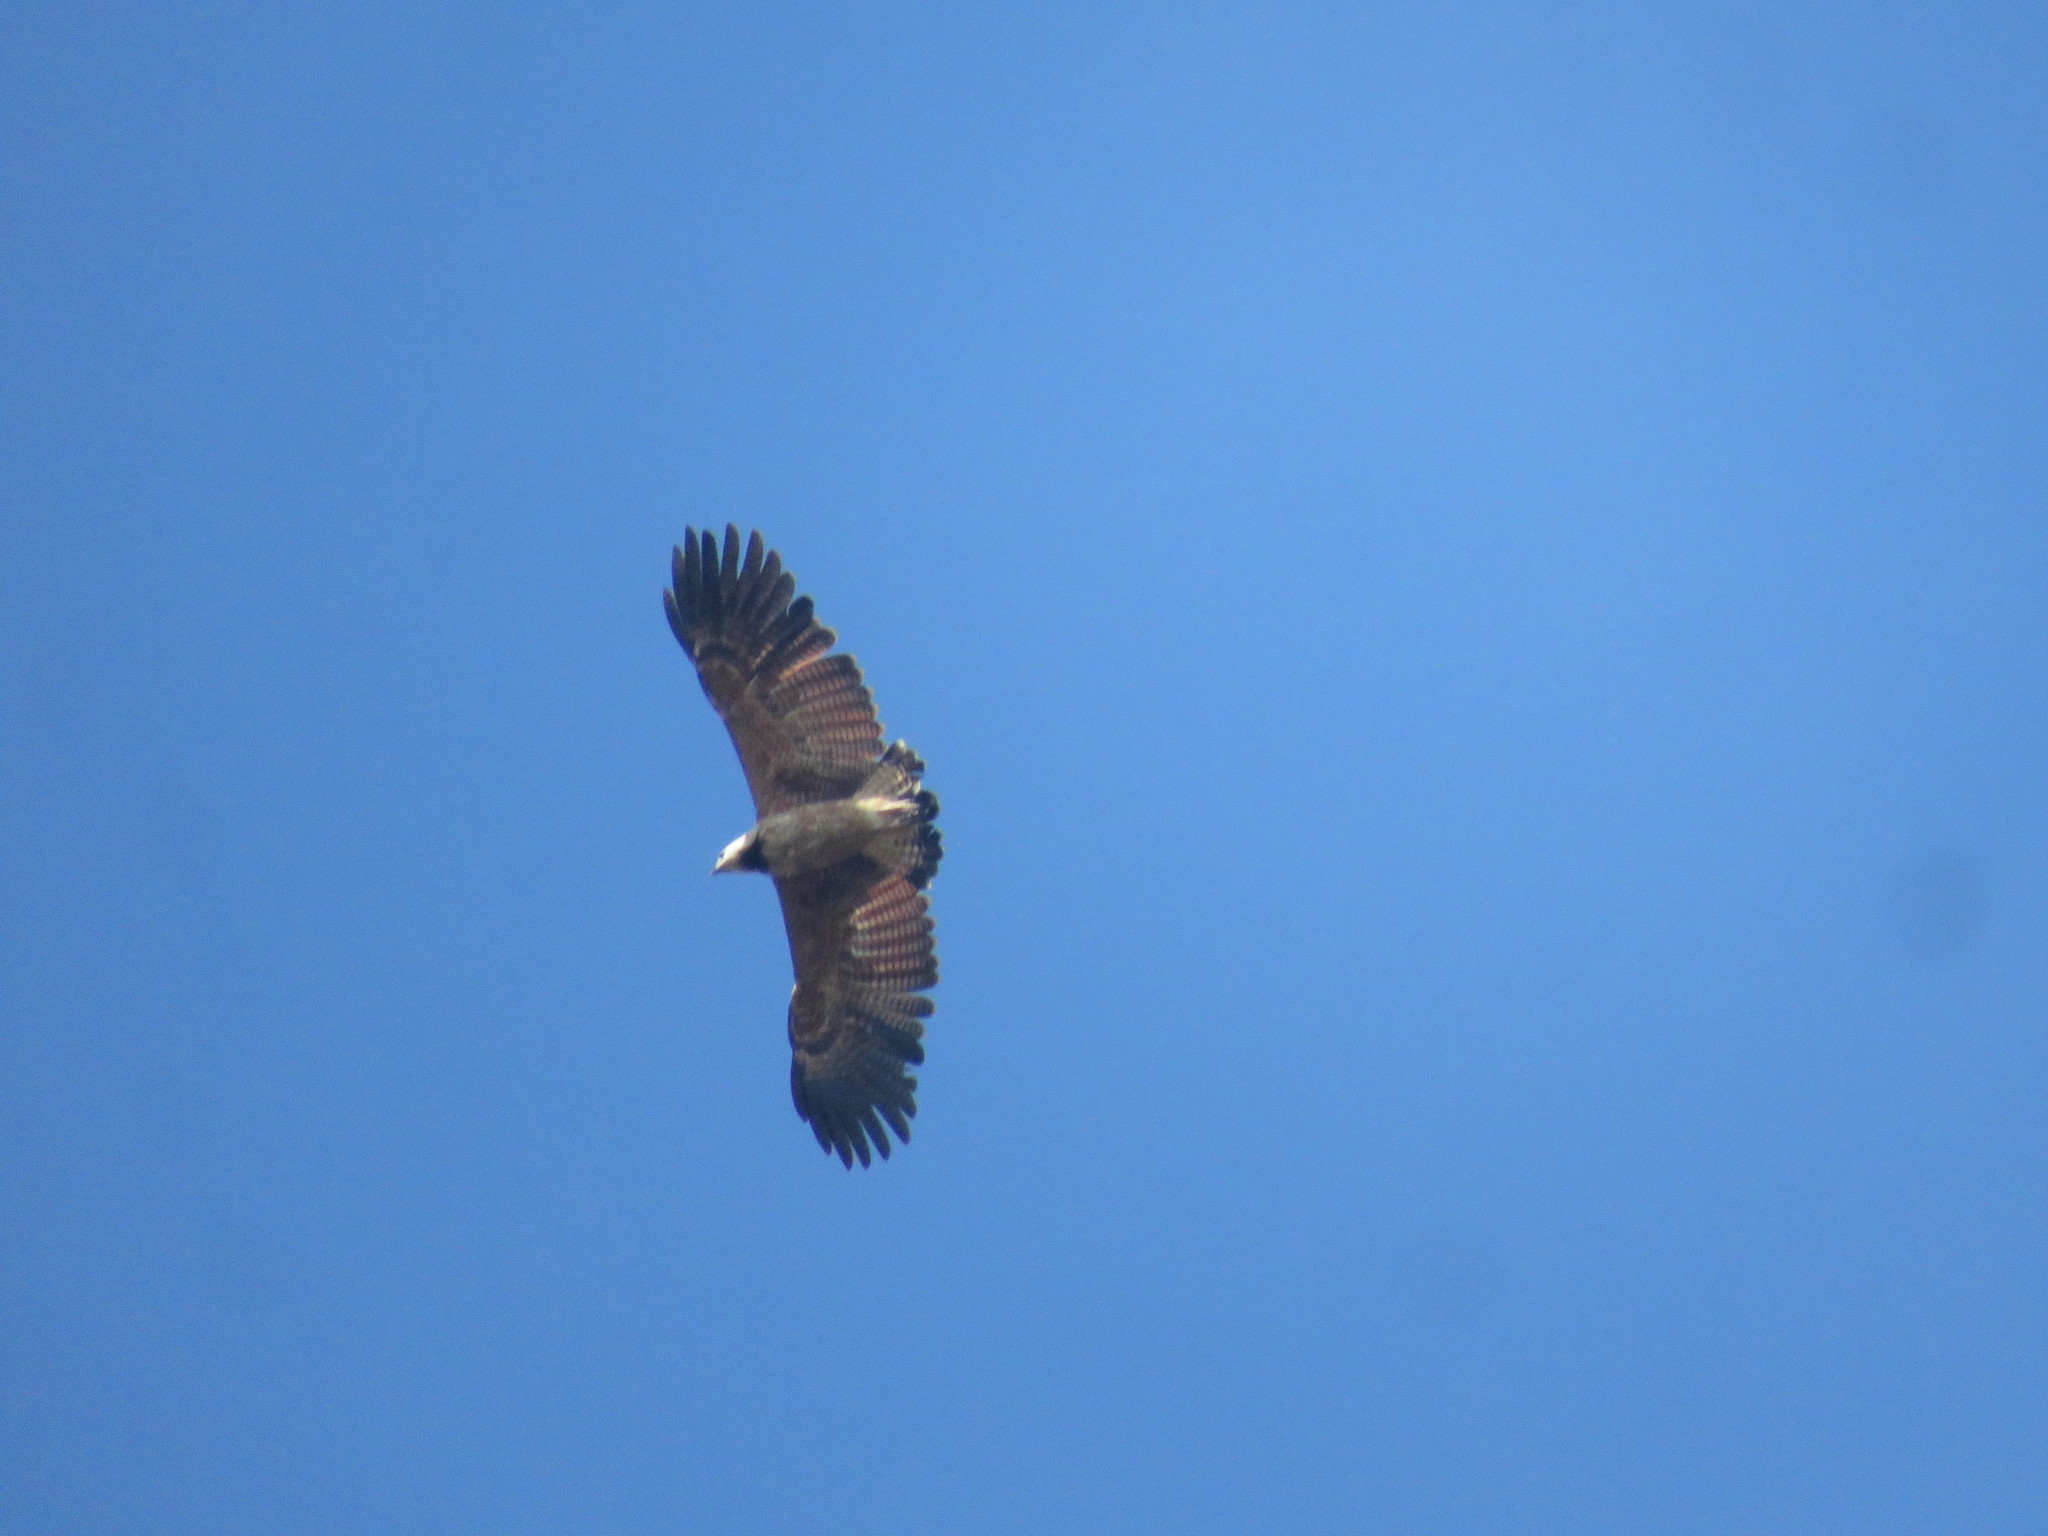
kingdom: Animalia
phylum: Chordata
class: Aves
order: Accipitriformes
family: Accipitridae
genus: Busarellus
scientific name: Busarellus nigricollis
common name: Black-collared hawk
